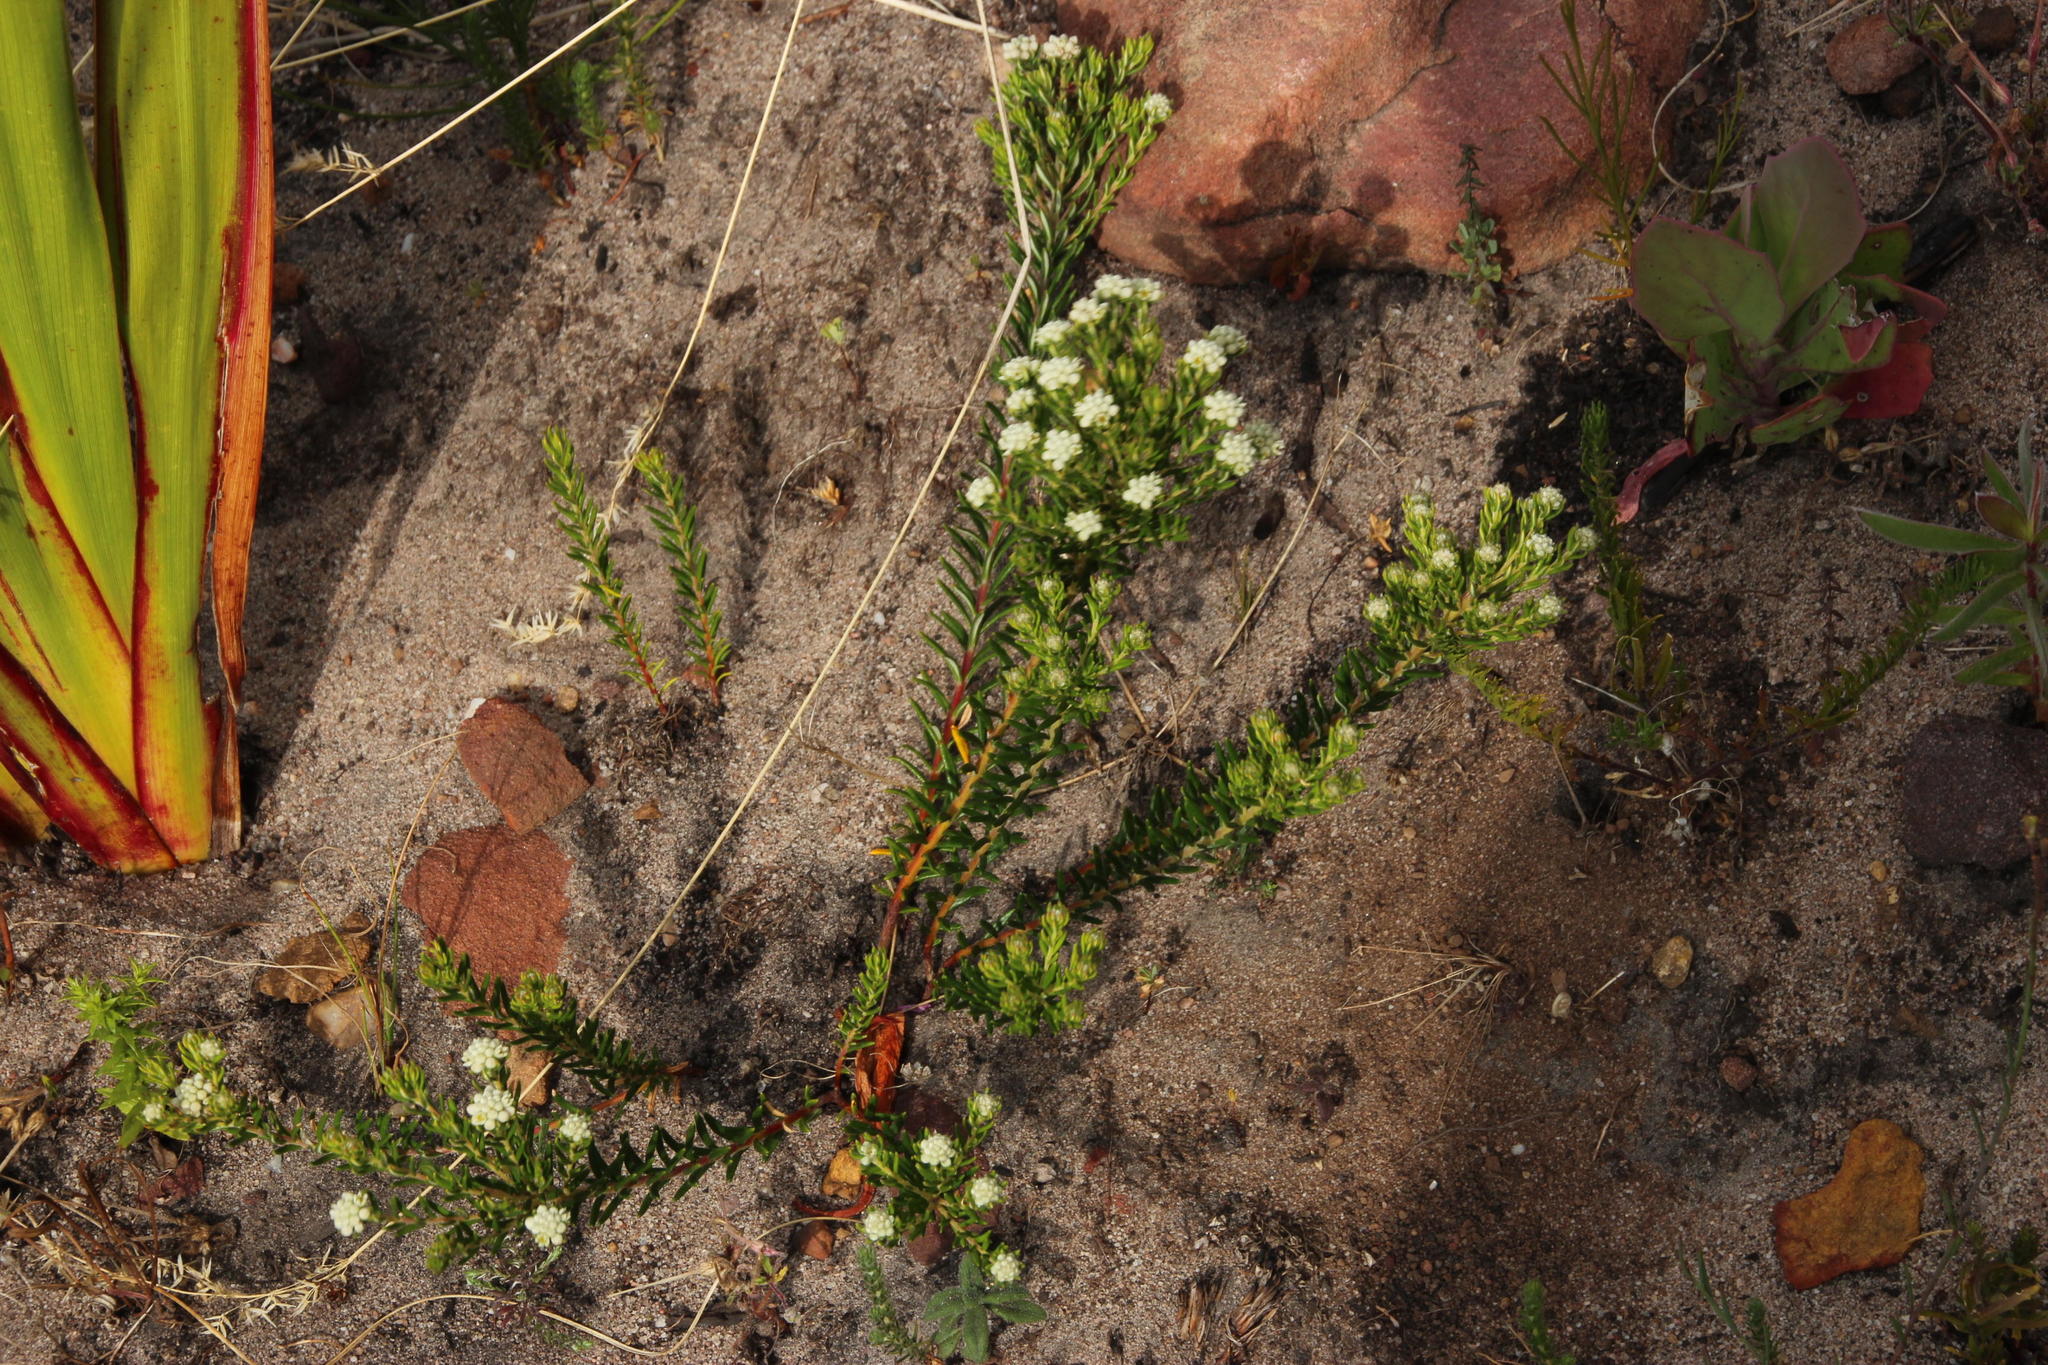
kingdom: Plantae
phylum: Tracheophyta
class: Magnoliopsida
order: Rosales
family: Rhamnaceae
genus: Phylica
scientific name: Phylica imberbis
